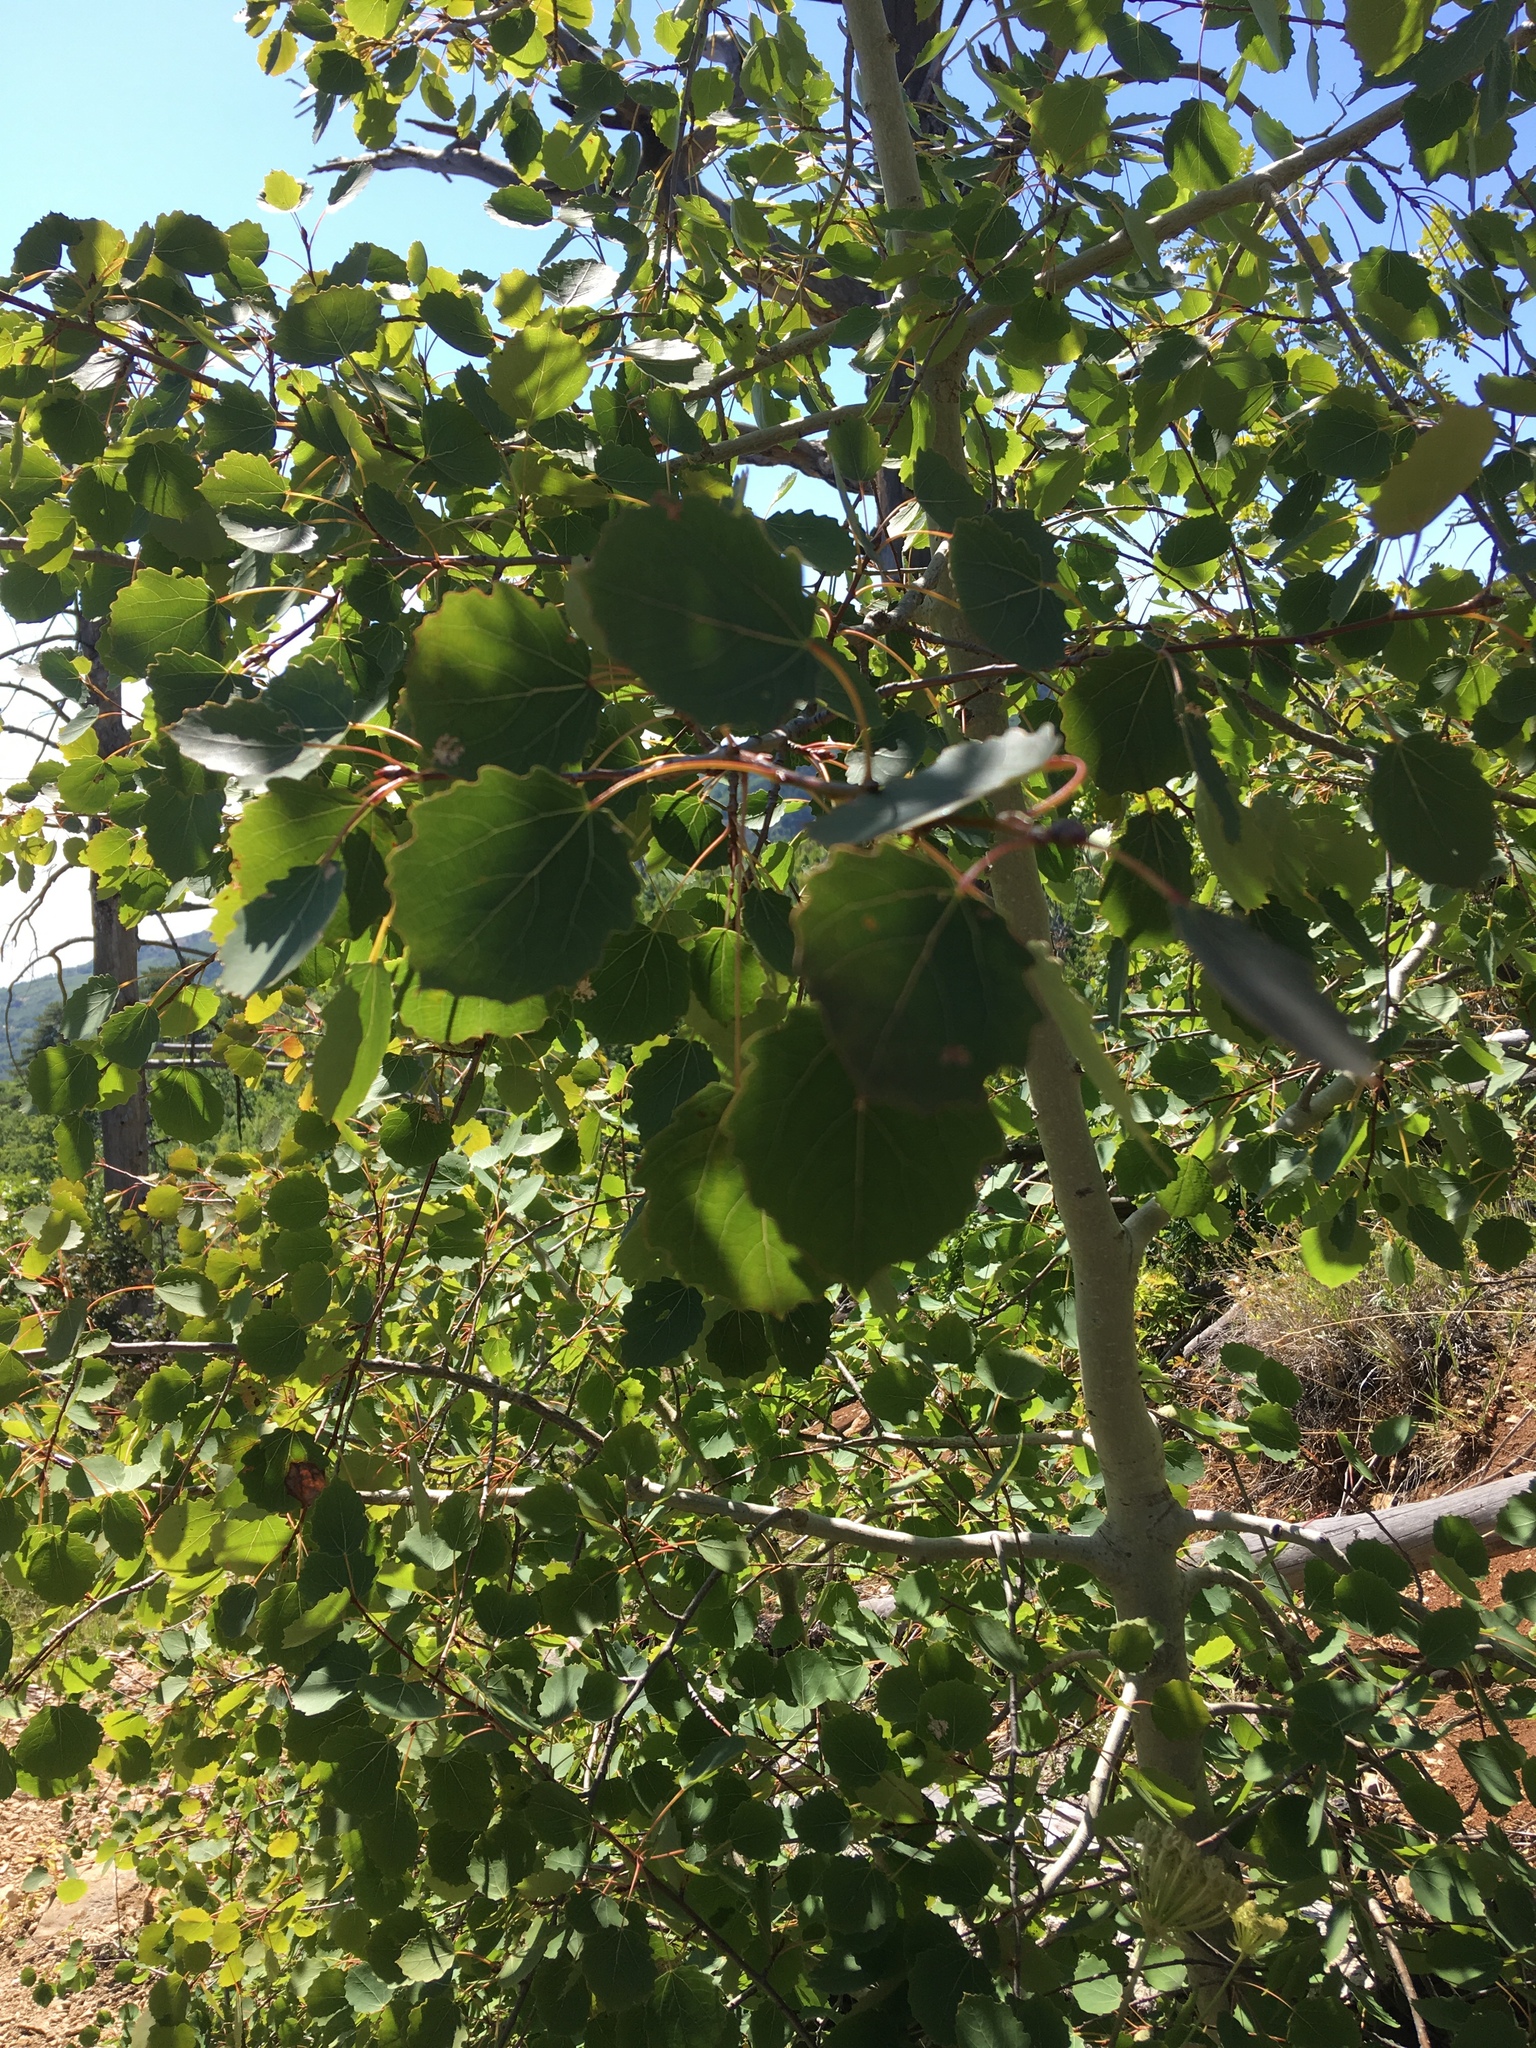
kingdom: Plantae
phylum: Tracheophyta
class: Magnoliopsida
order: Malpighiales
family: Salicaceae
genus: Populus
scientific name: Populus tremula
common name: European aspen
